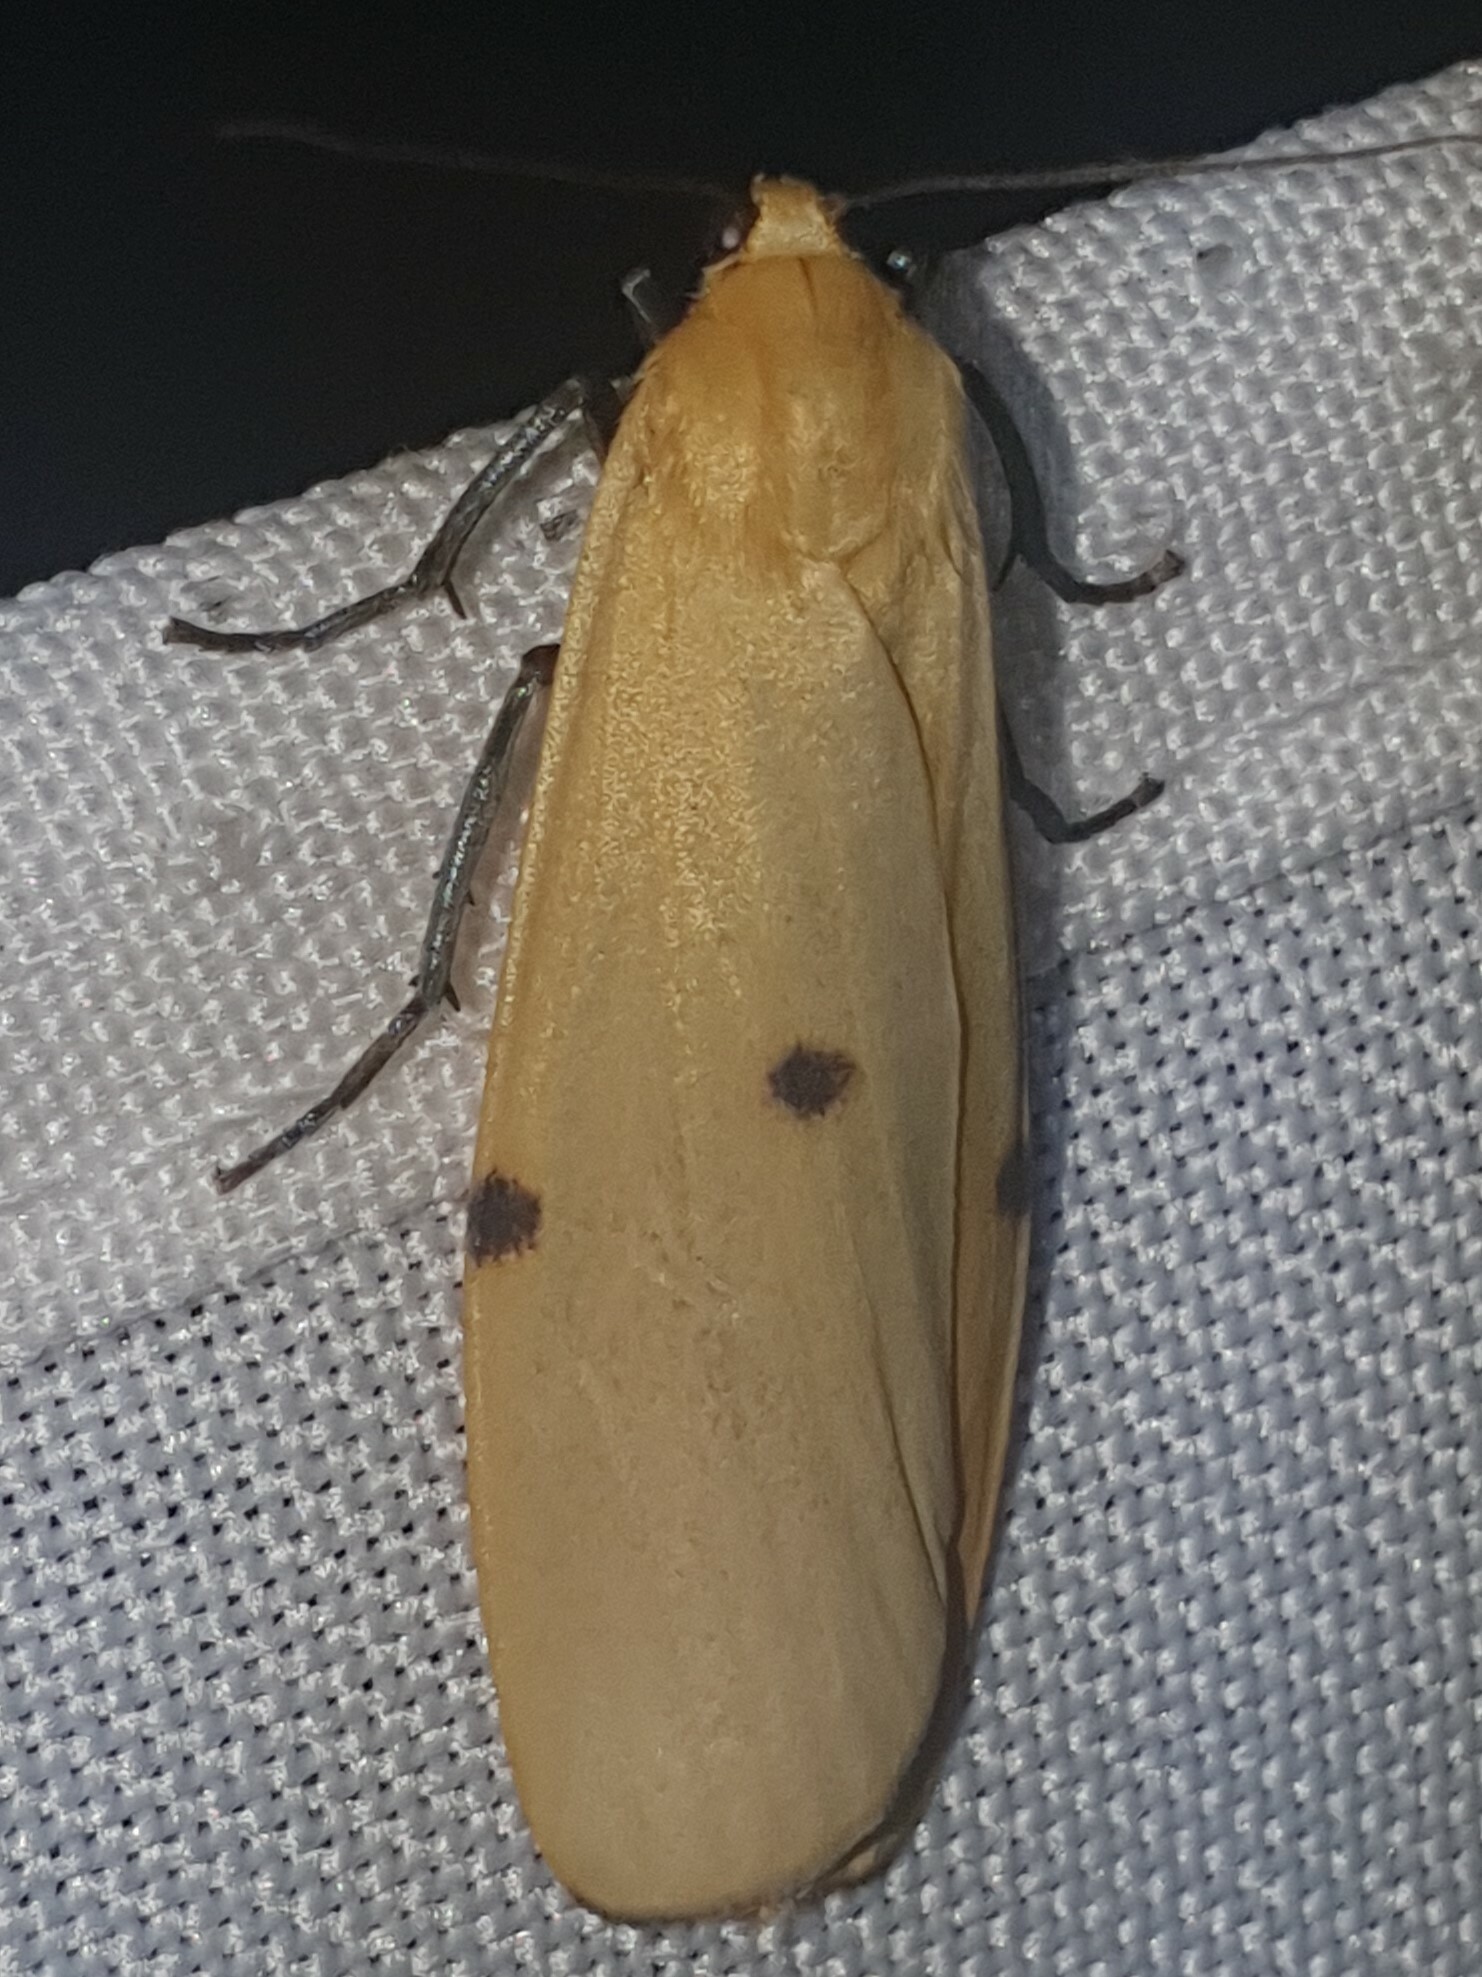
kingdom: Animalia
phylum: Arthropoda
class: Insecta
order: Lepidoptera
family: Erebidae
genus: Lithosia
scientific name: Lithosia quadra
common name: Four-spotted footman
